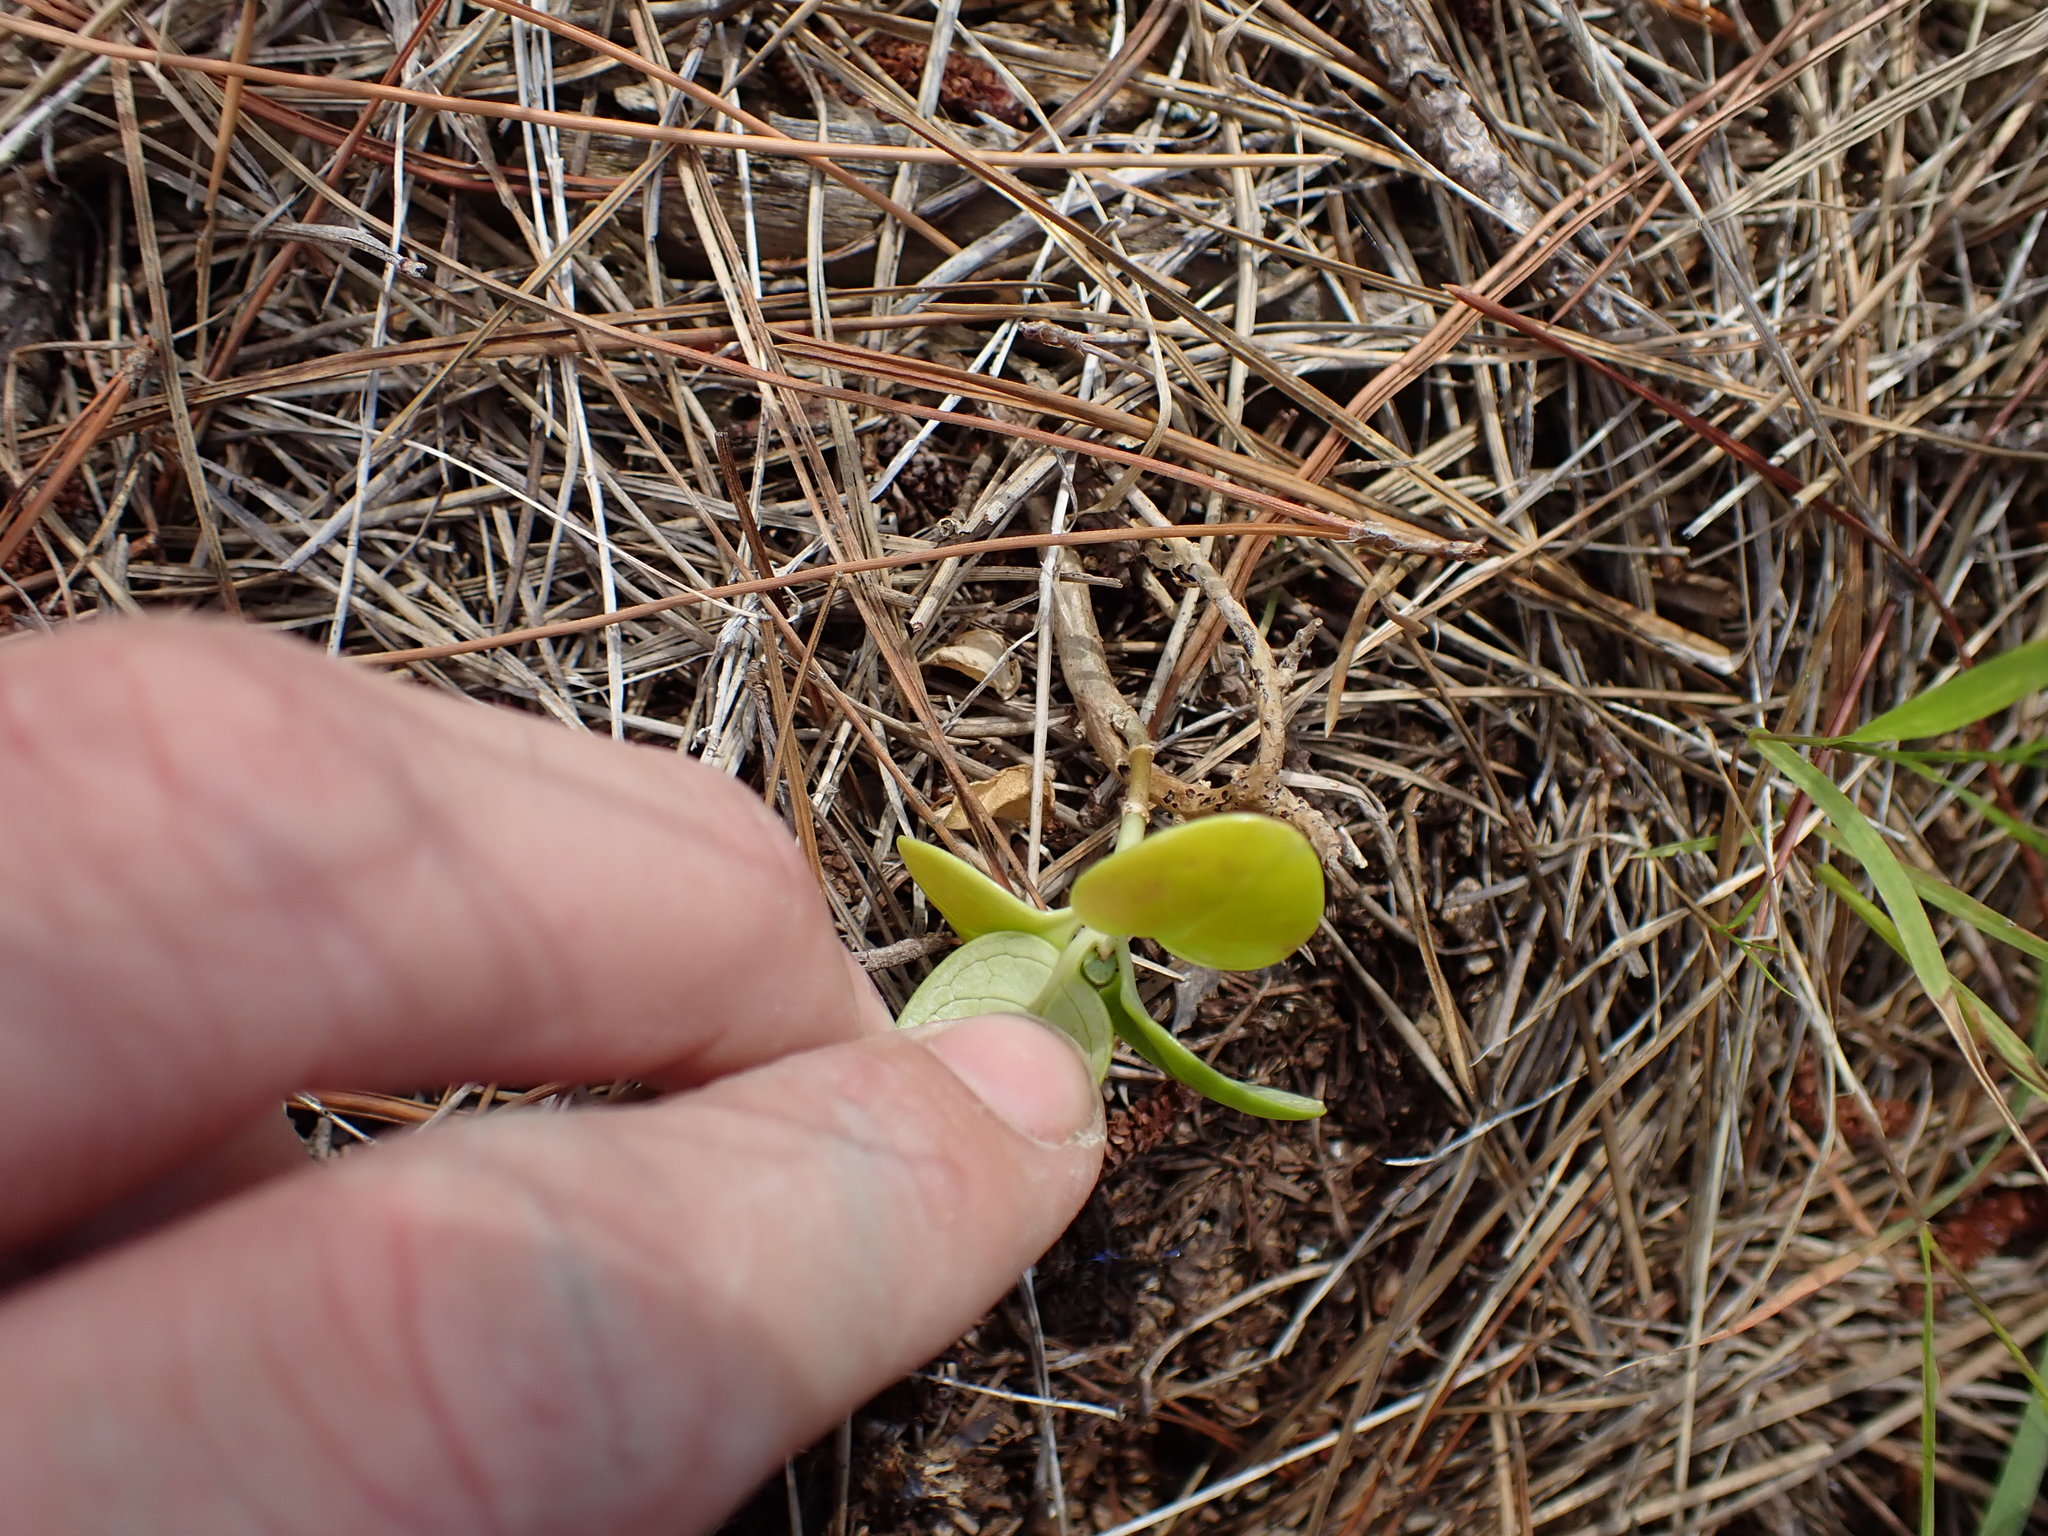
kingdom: Plantae
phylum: Tracheophyta
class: Magnoliopsida
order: Gentianales
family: Rubiaceae
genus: Coprosma
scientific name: Coprosma repens
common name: Tree bedstraw
